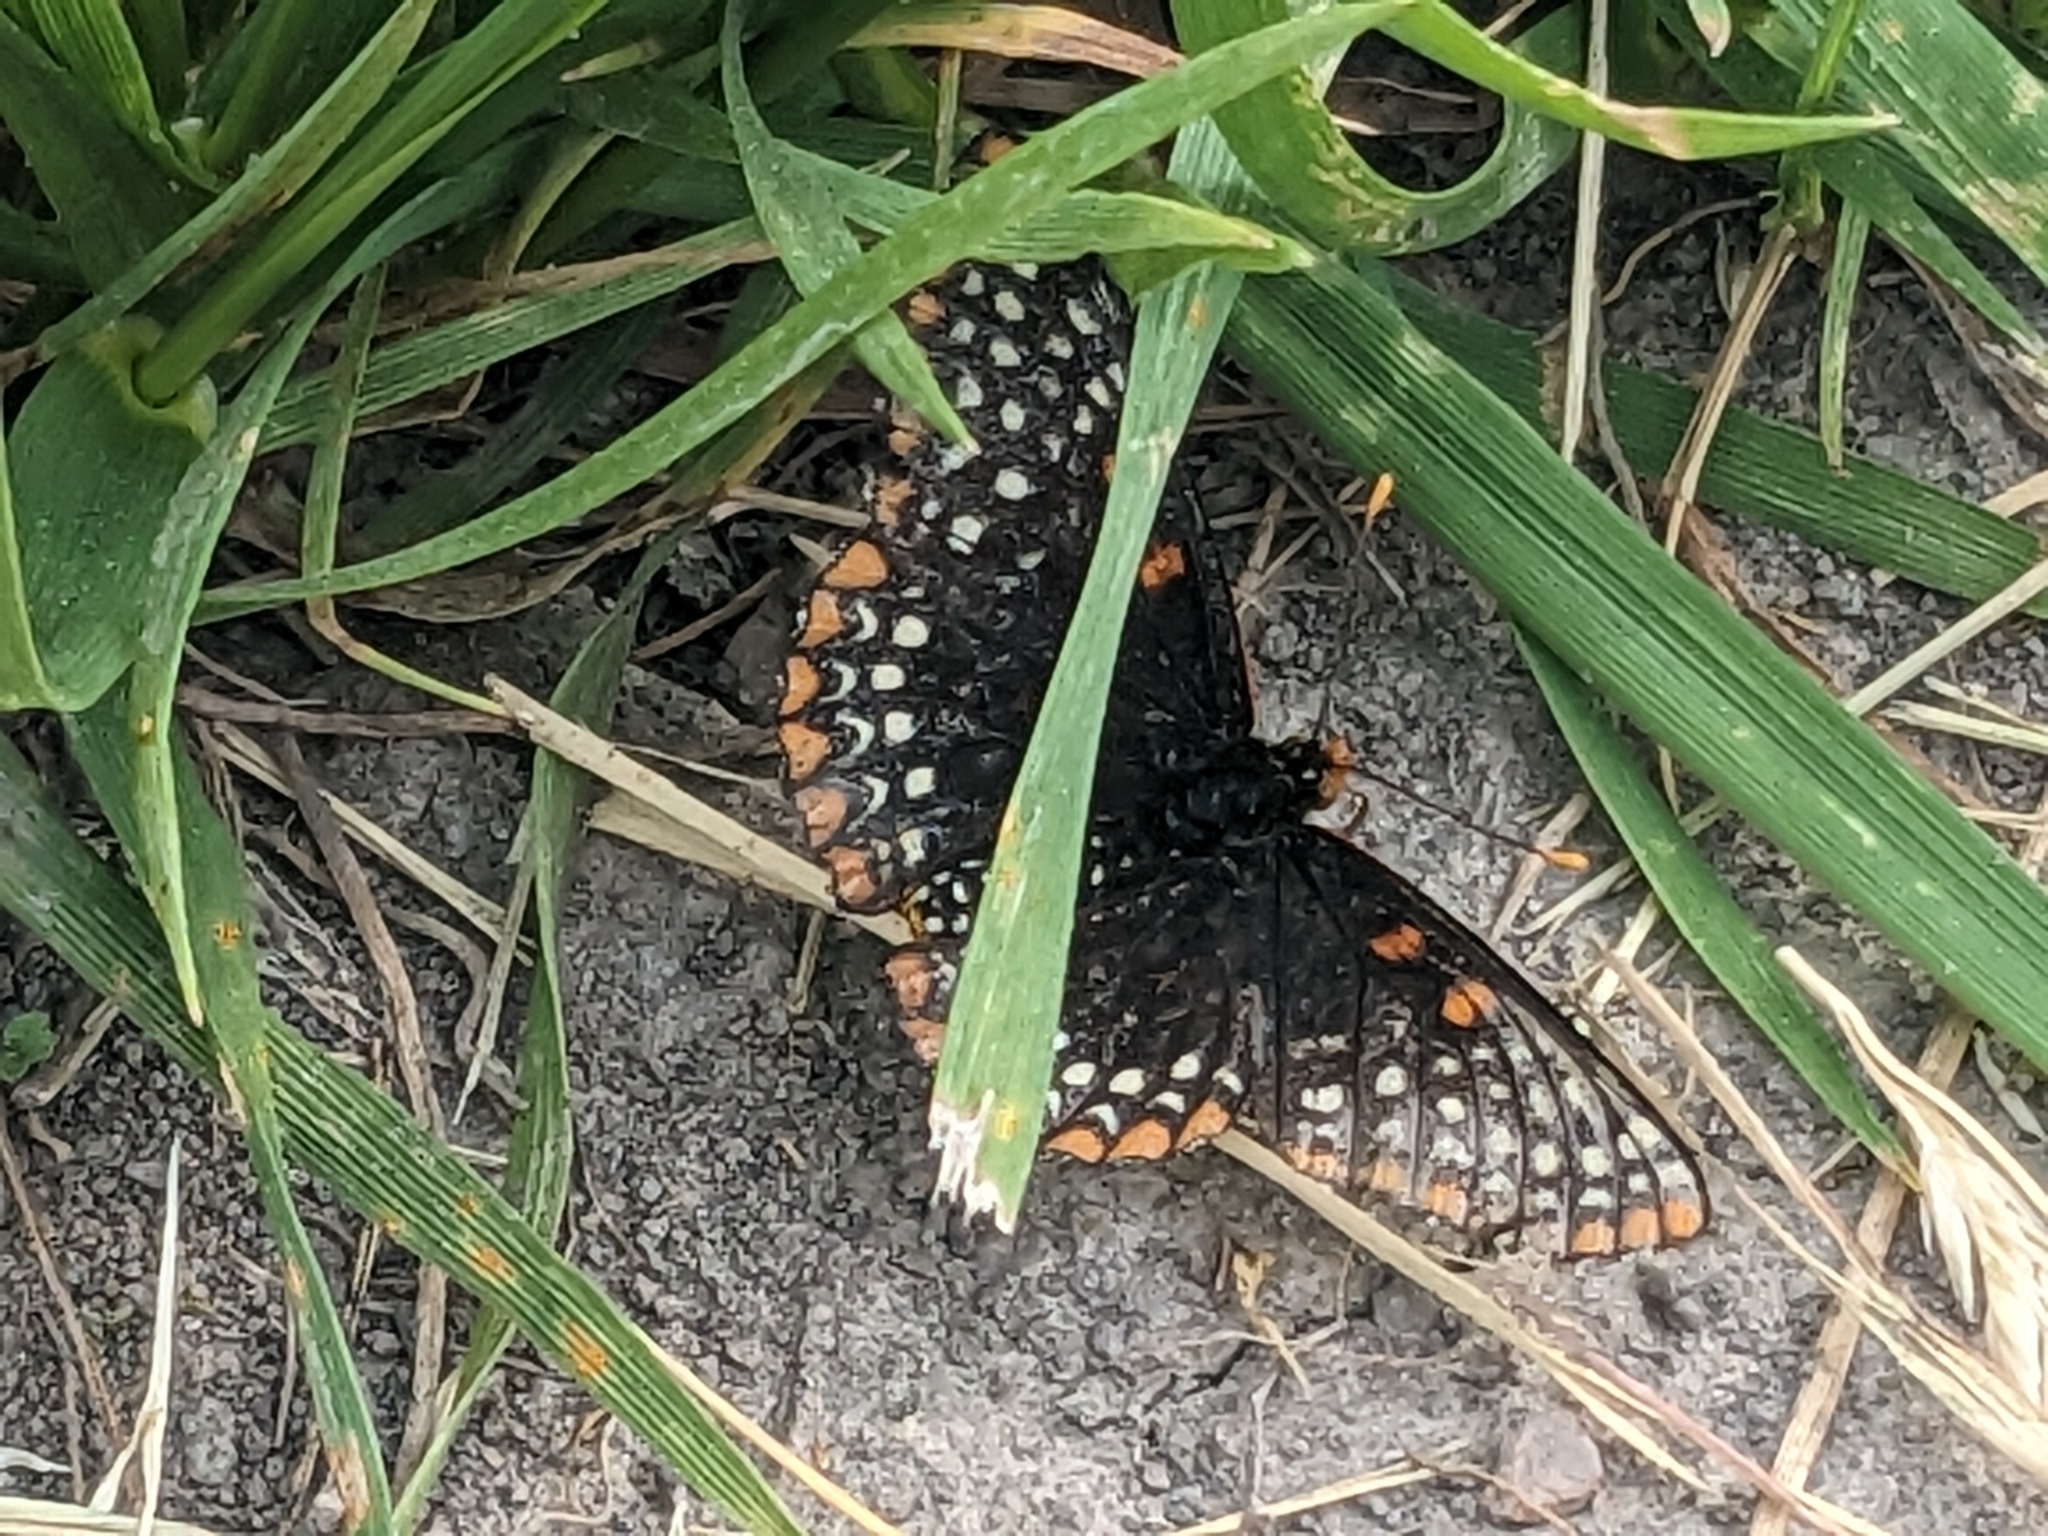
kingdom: Animalia
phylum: Arthropoda
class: Insecta
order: Lepidoptera
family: Nymphalidae
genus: Euphydryas
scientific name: Euphydryas phaeton
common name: Baltimore checkerspot
